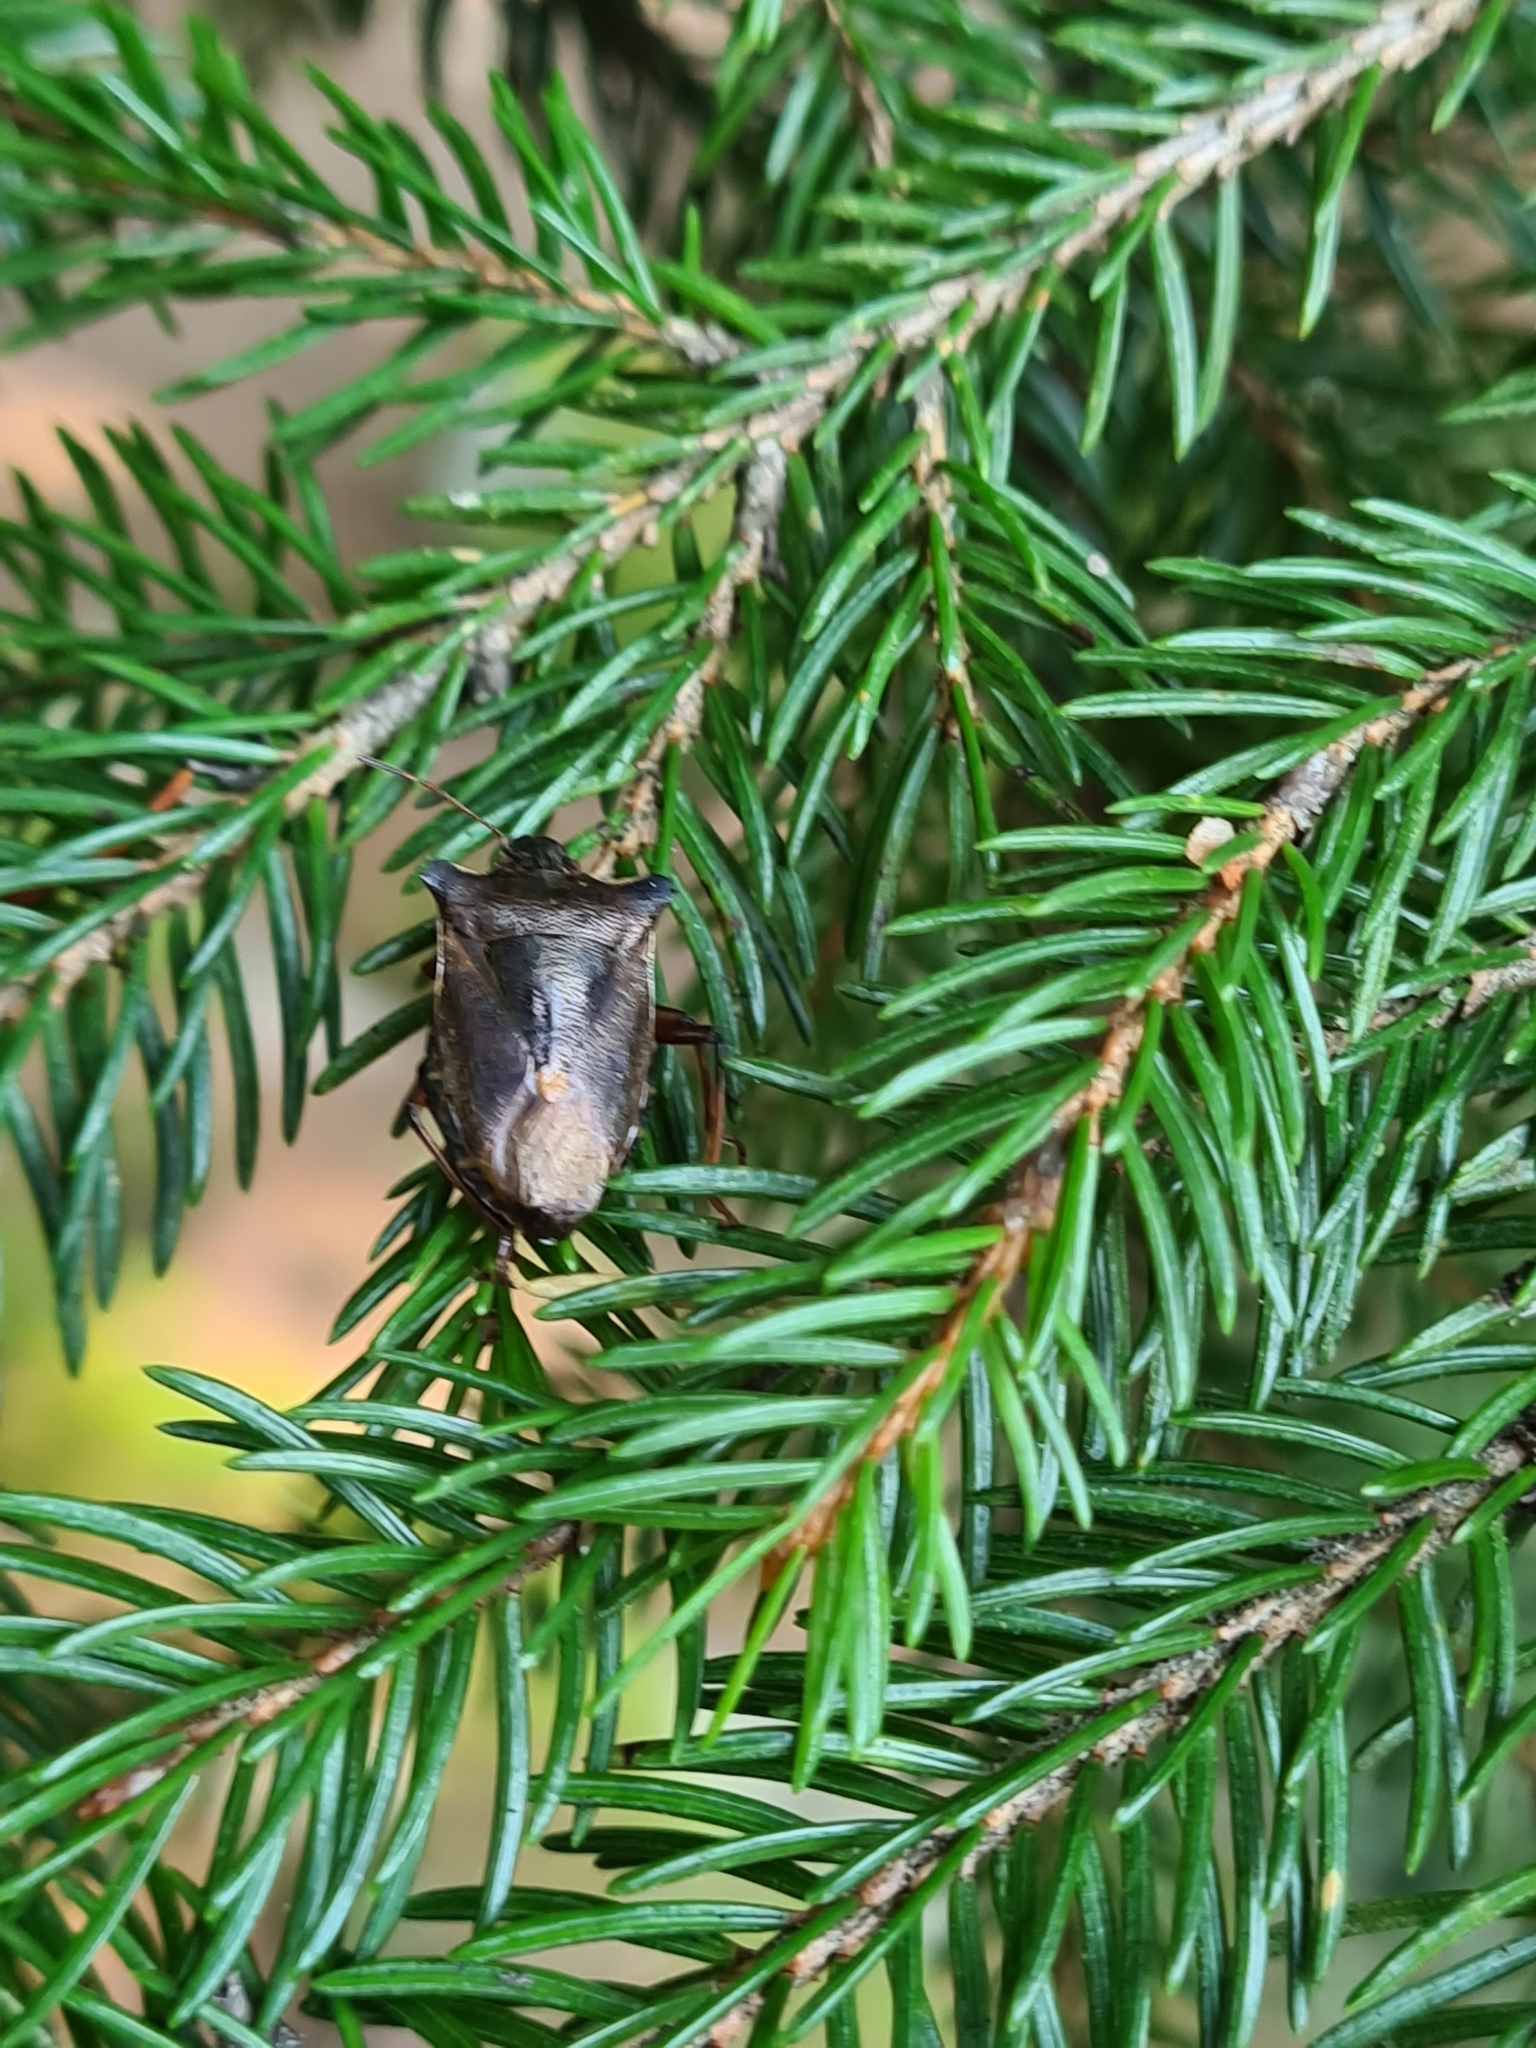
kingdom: Animalia
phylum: Arthropoda
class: Insecta
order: Hemiptera
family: Pentatomidae
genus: Pentatoma
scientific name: Pentatoma rufipes
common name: Forest bug
